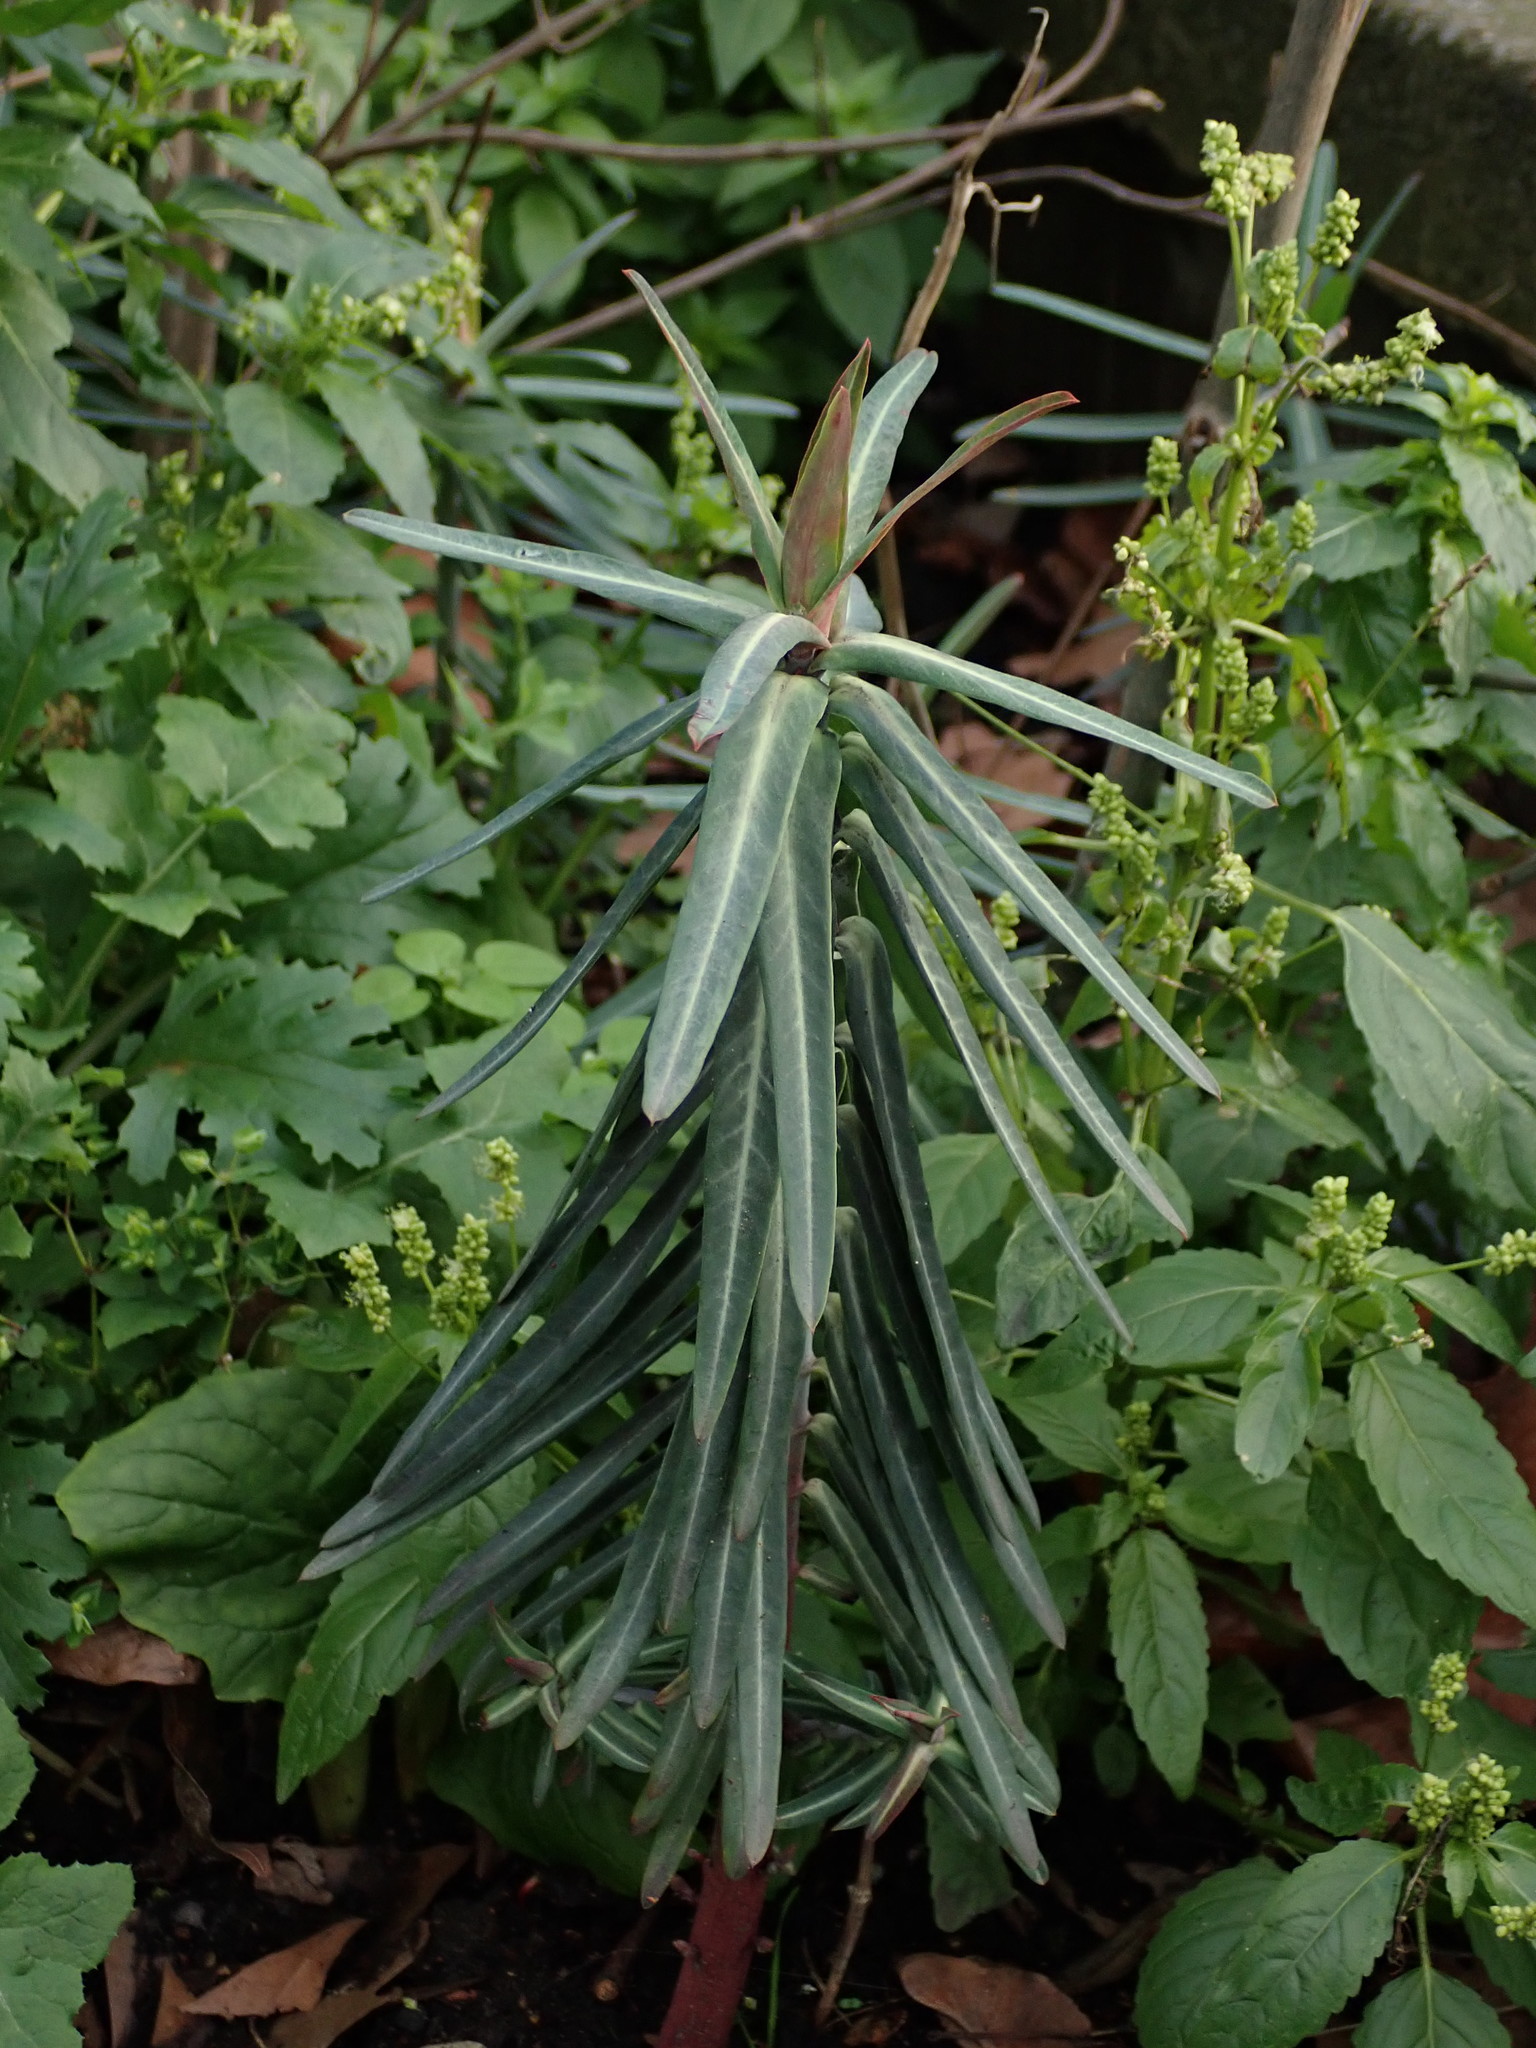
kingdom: Plantae
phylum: Tracheophyta
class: Magnoliopsida
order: Malpighiales
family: Euphorbiaceae
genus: Euphorbia
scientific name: Euphorbia lathyris
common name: Caper spurge
